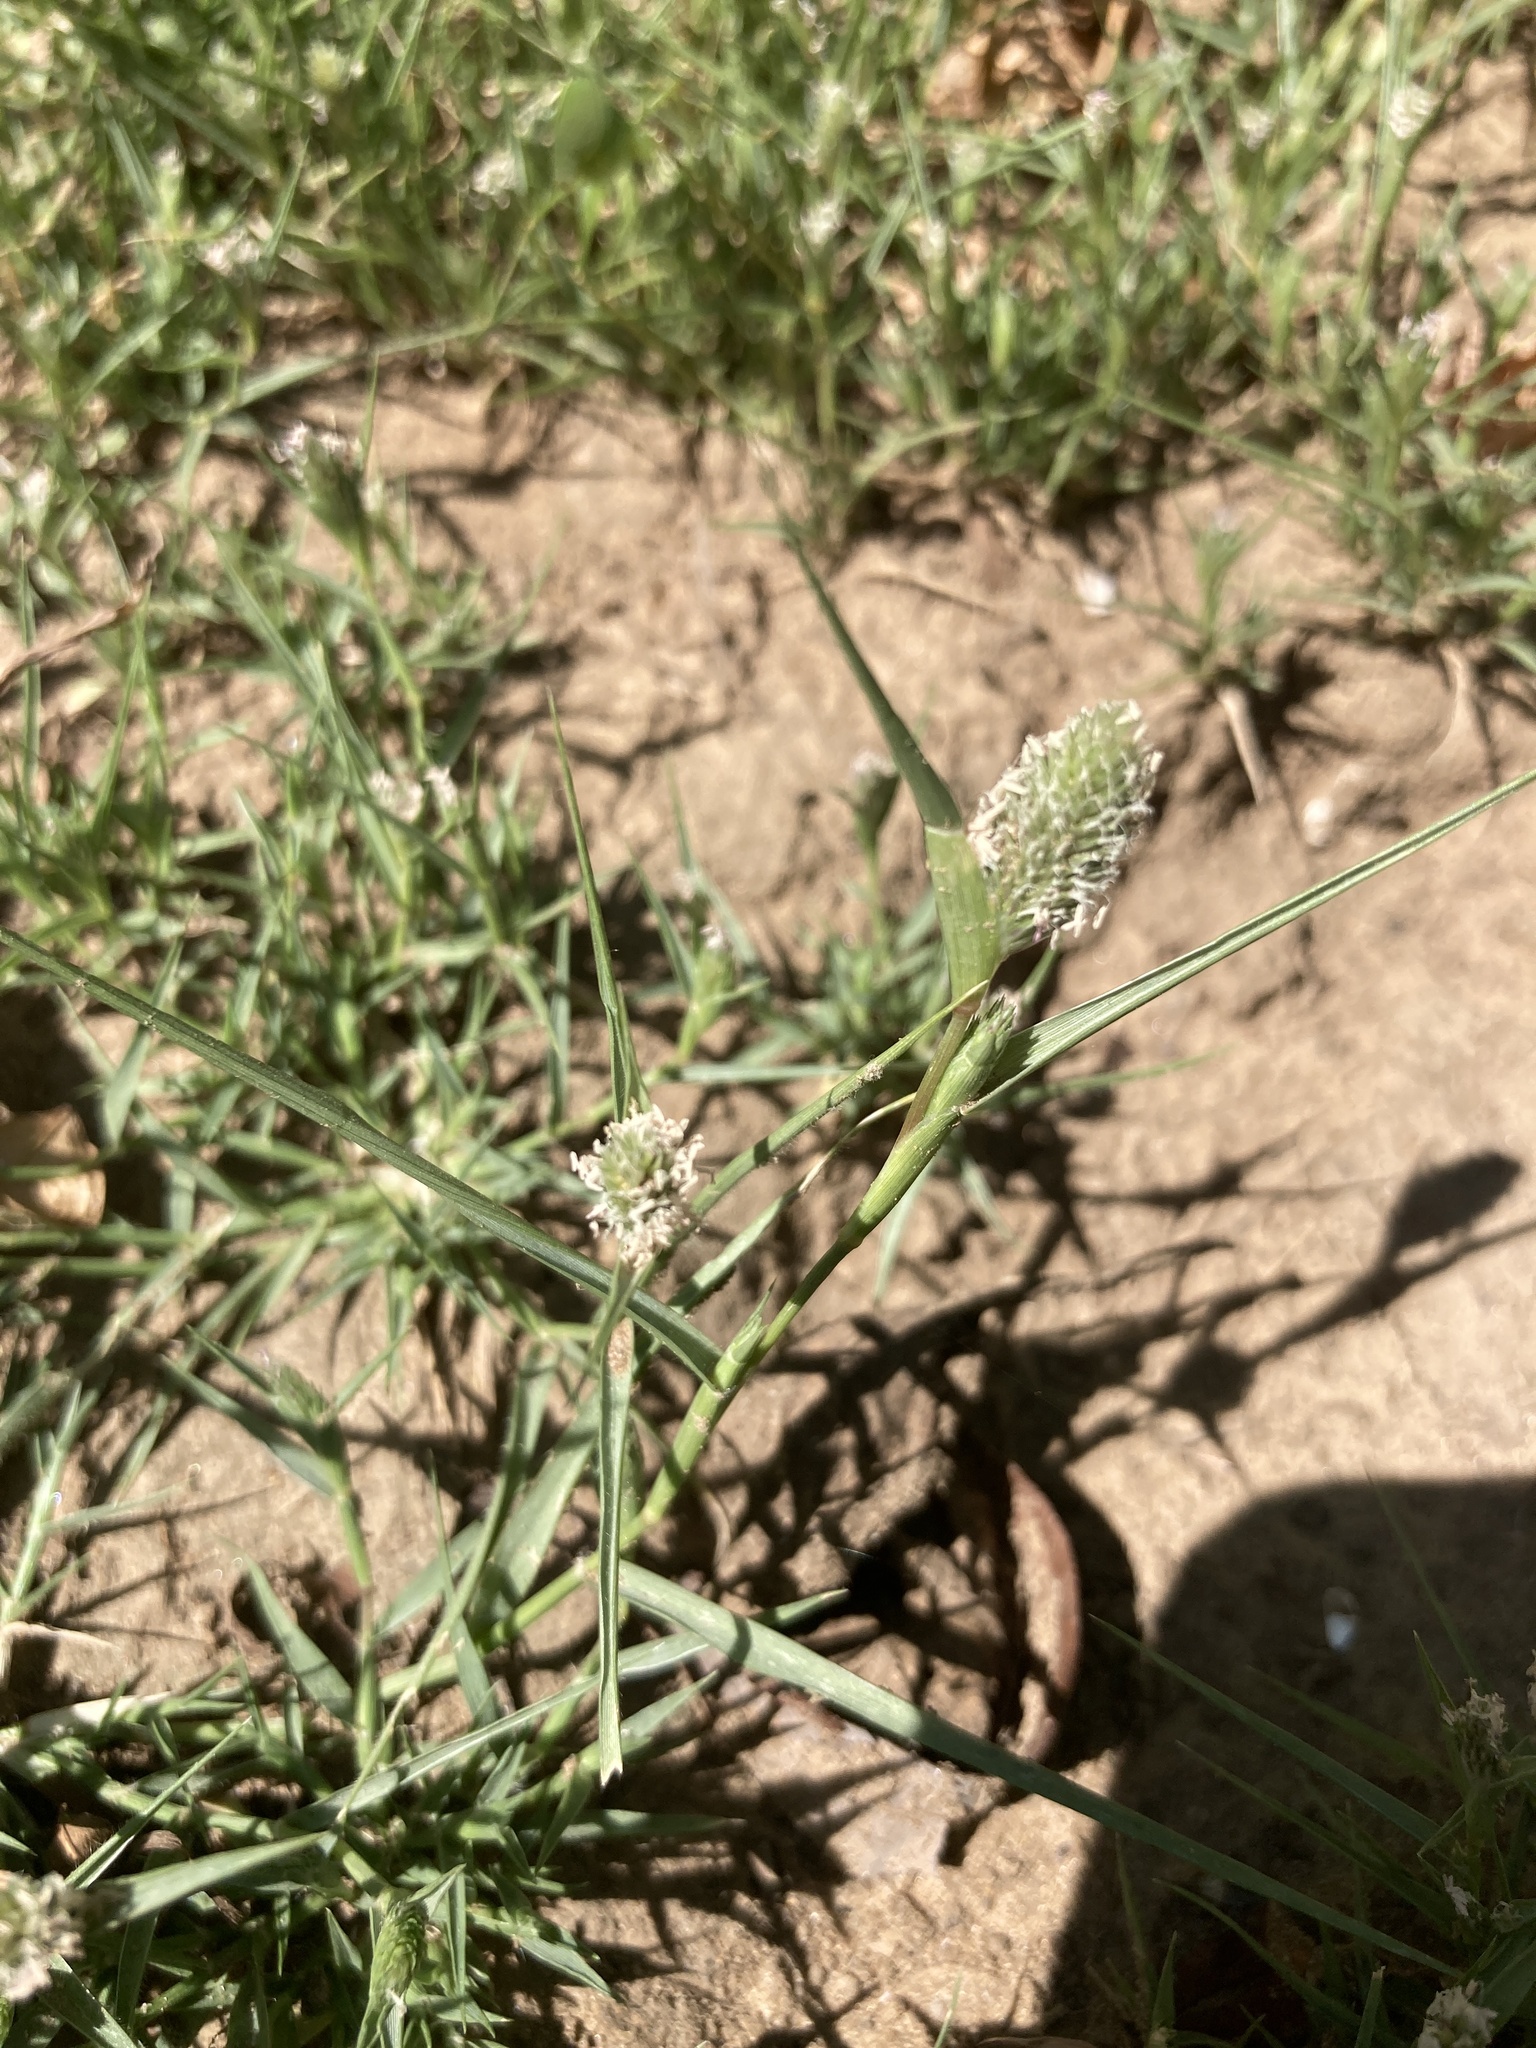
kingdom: Plantae
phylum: Tracheophyta
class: Liliopsida
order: Poales
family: Poaceae
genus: Sporobolus
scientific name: Sporobolus schoenoides
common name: Rush-like timothy
